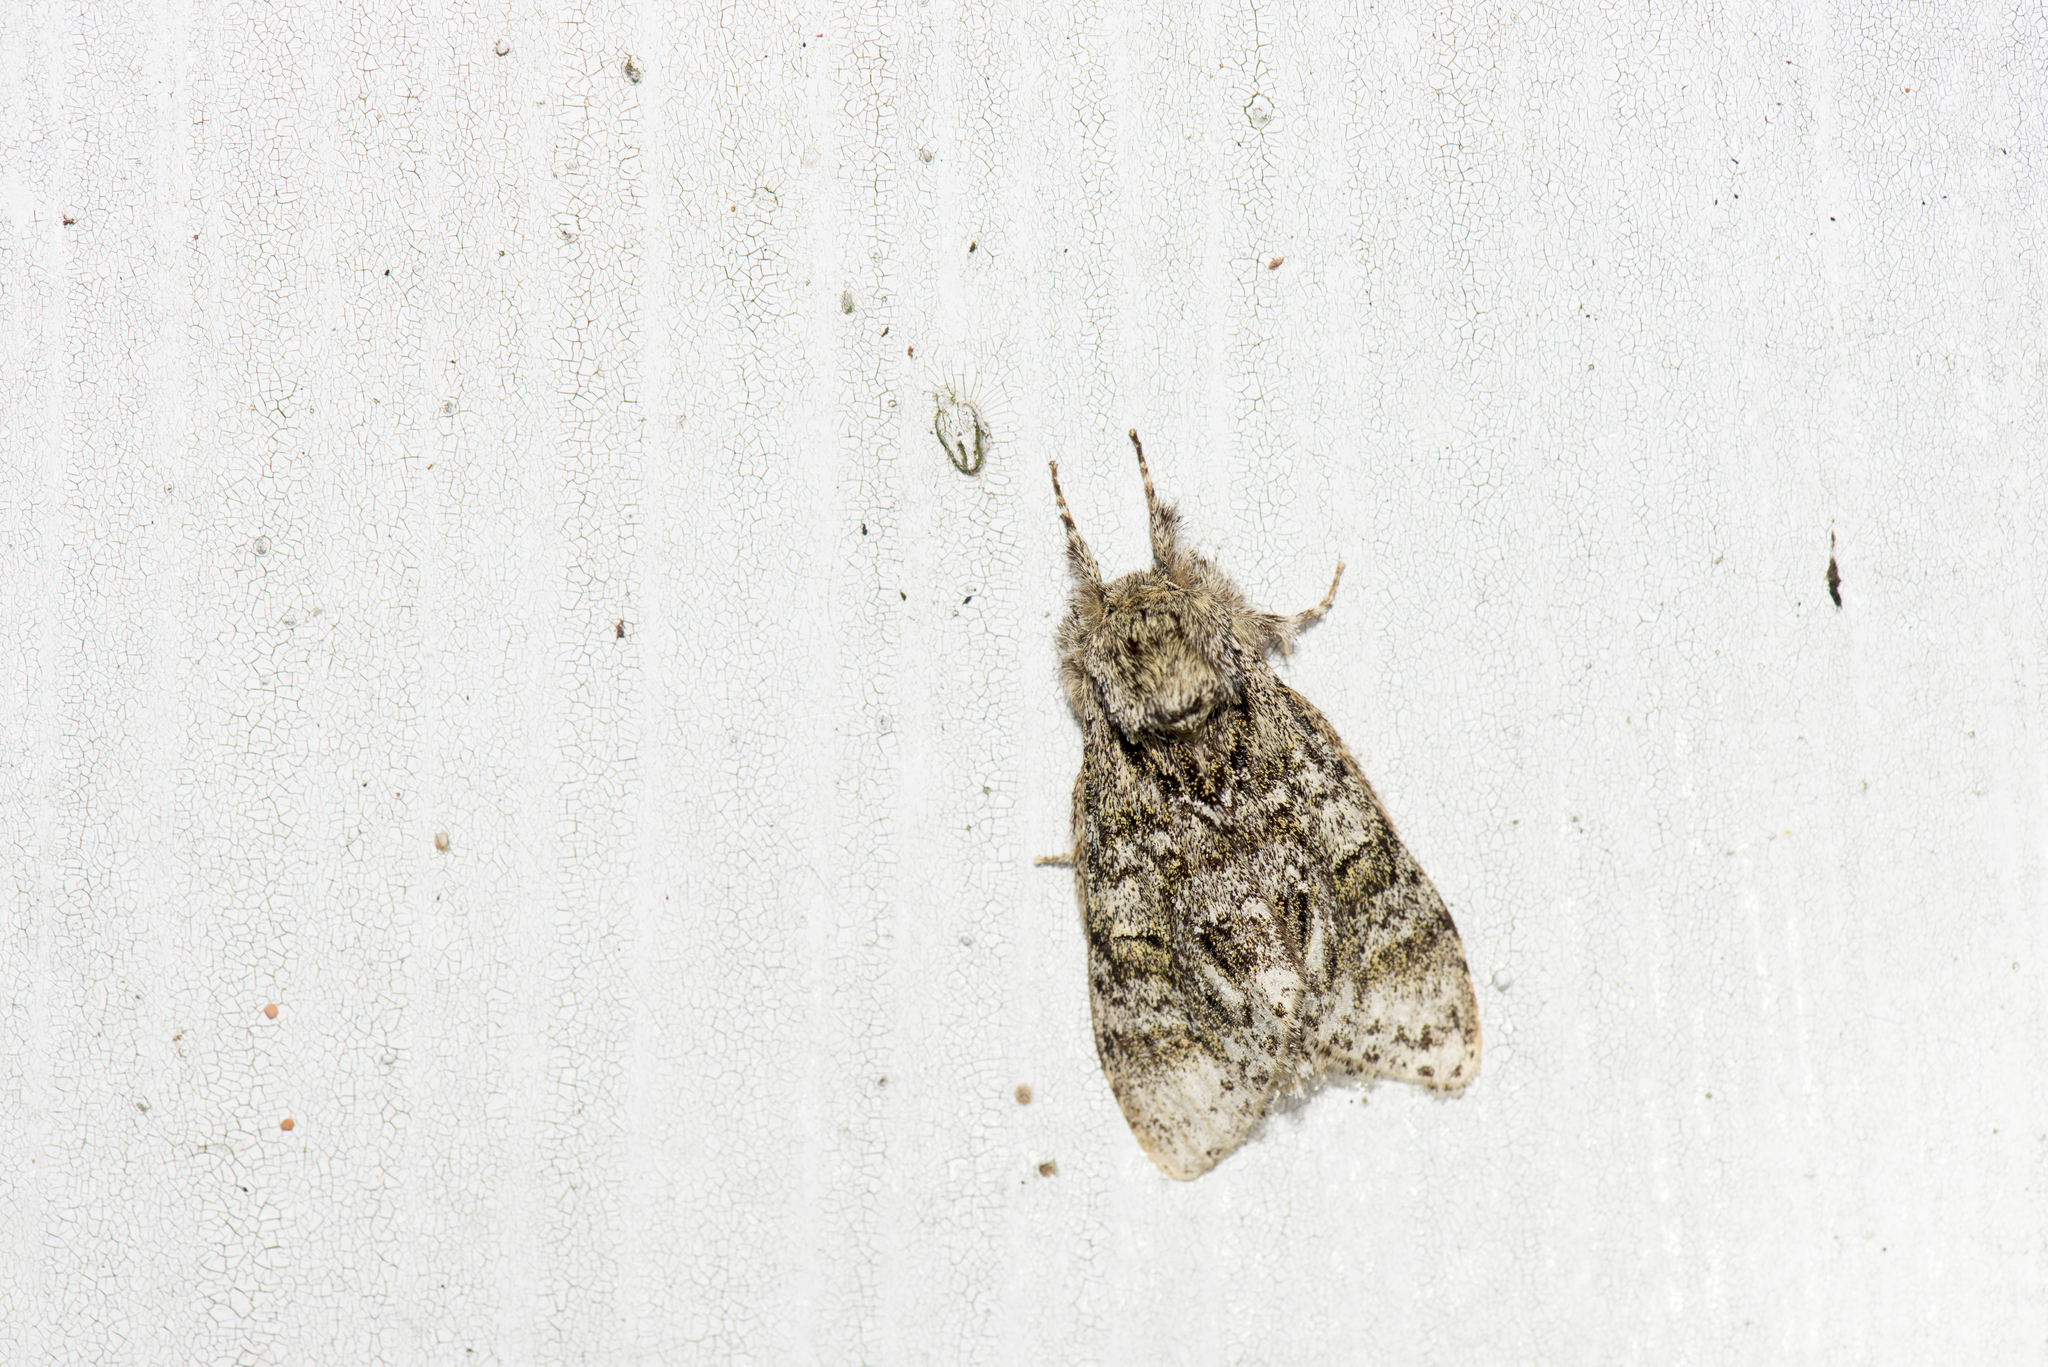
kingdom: Animalia
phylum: Arthropoda
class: Insecta
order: Lepidoptera
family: Notodontidae
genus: Pheosiopsis
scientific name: Pheosiopsis cinerea
